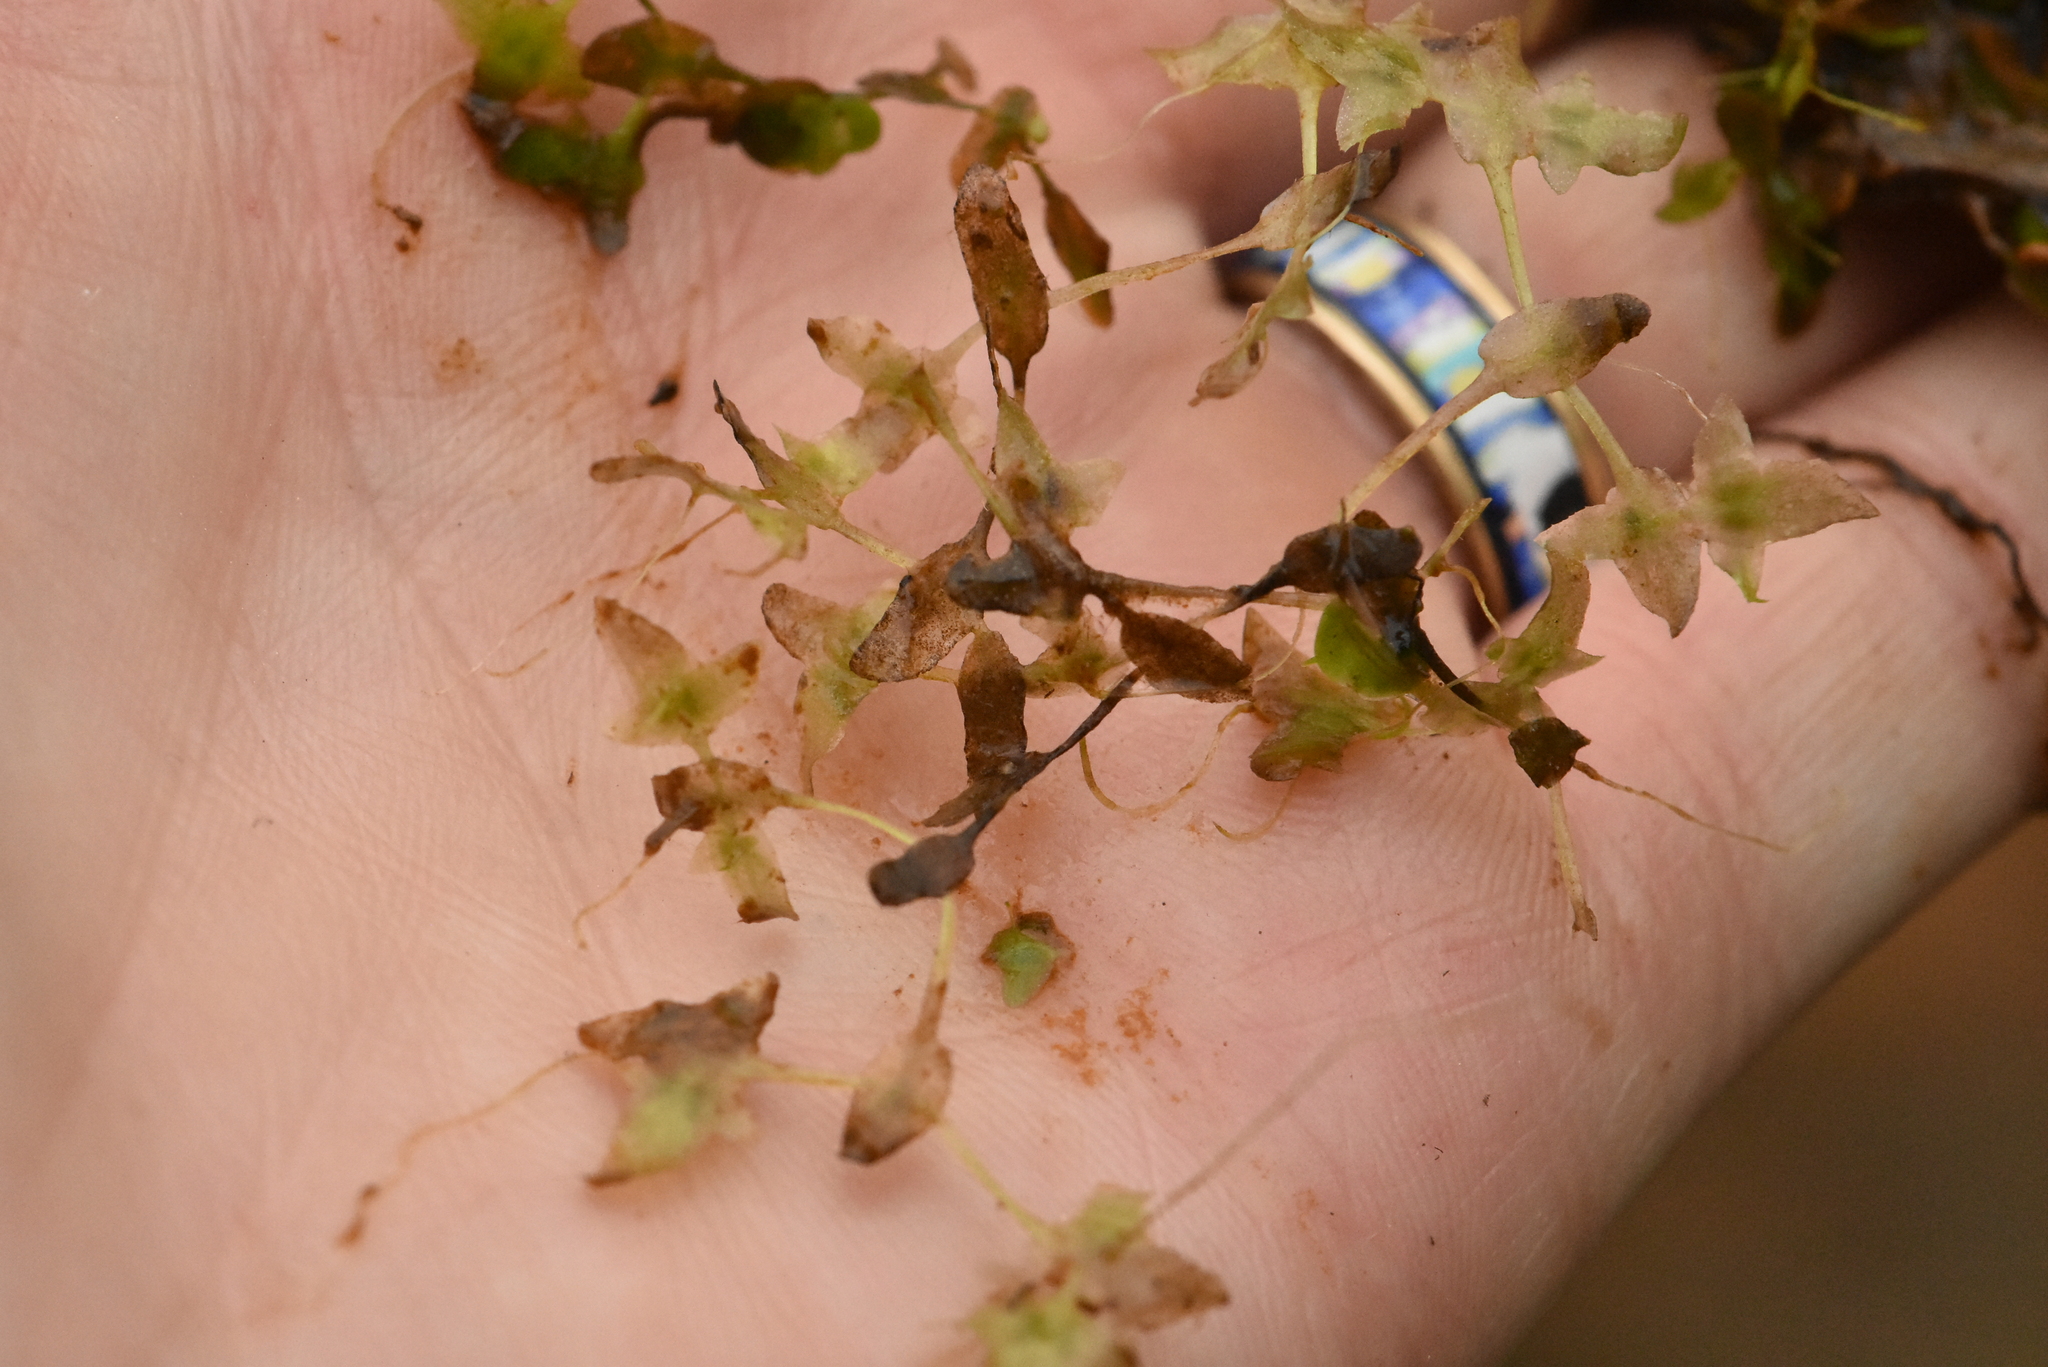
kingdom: Plantae
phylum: Tracheophyta
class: Liliopsida
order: Alismatales
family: Araceae
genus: Lemna
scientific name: Lemna trisulca
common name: Ivy-leaved duckweed
